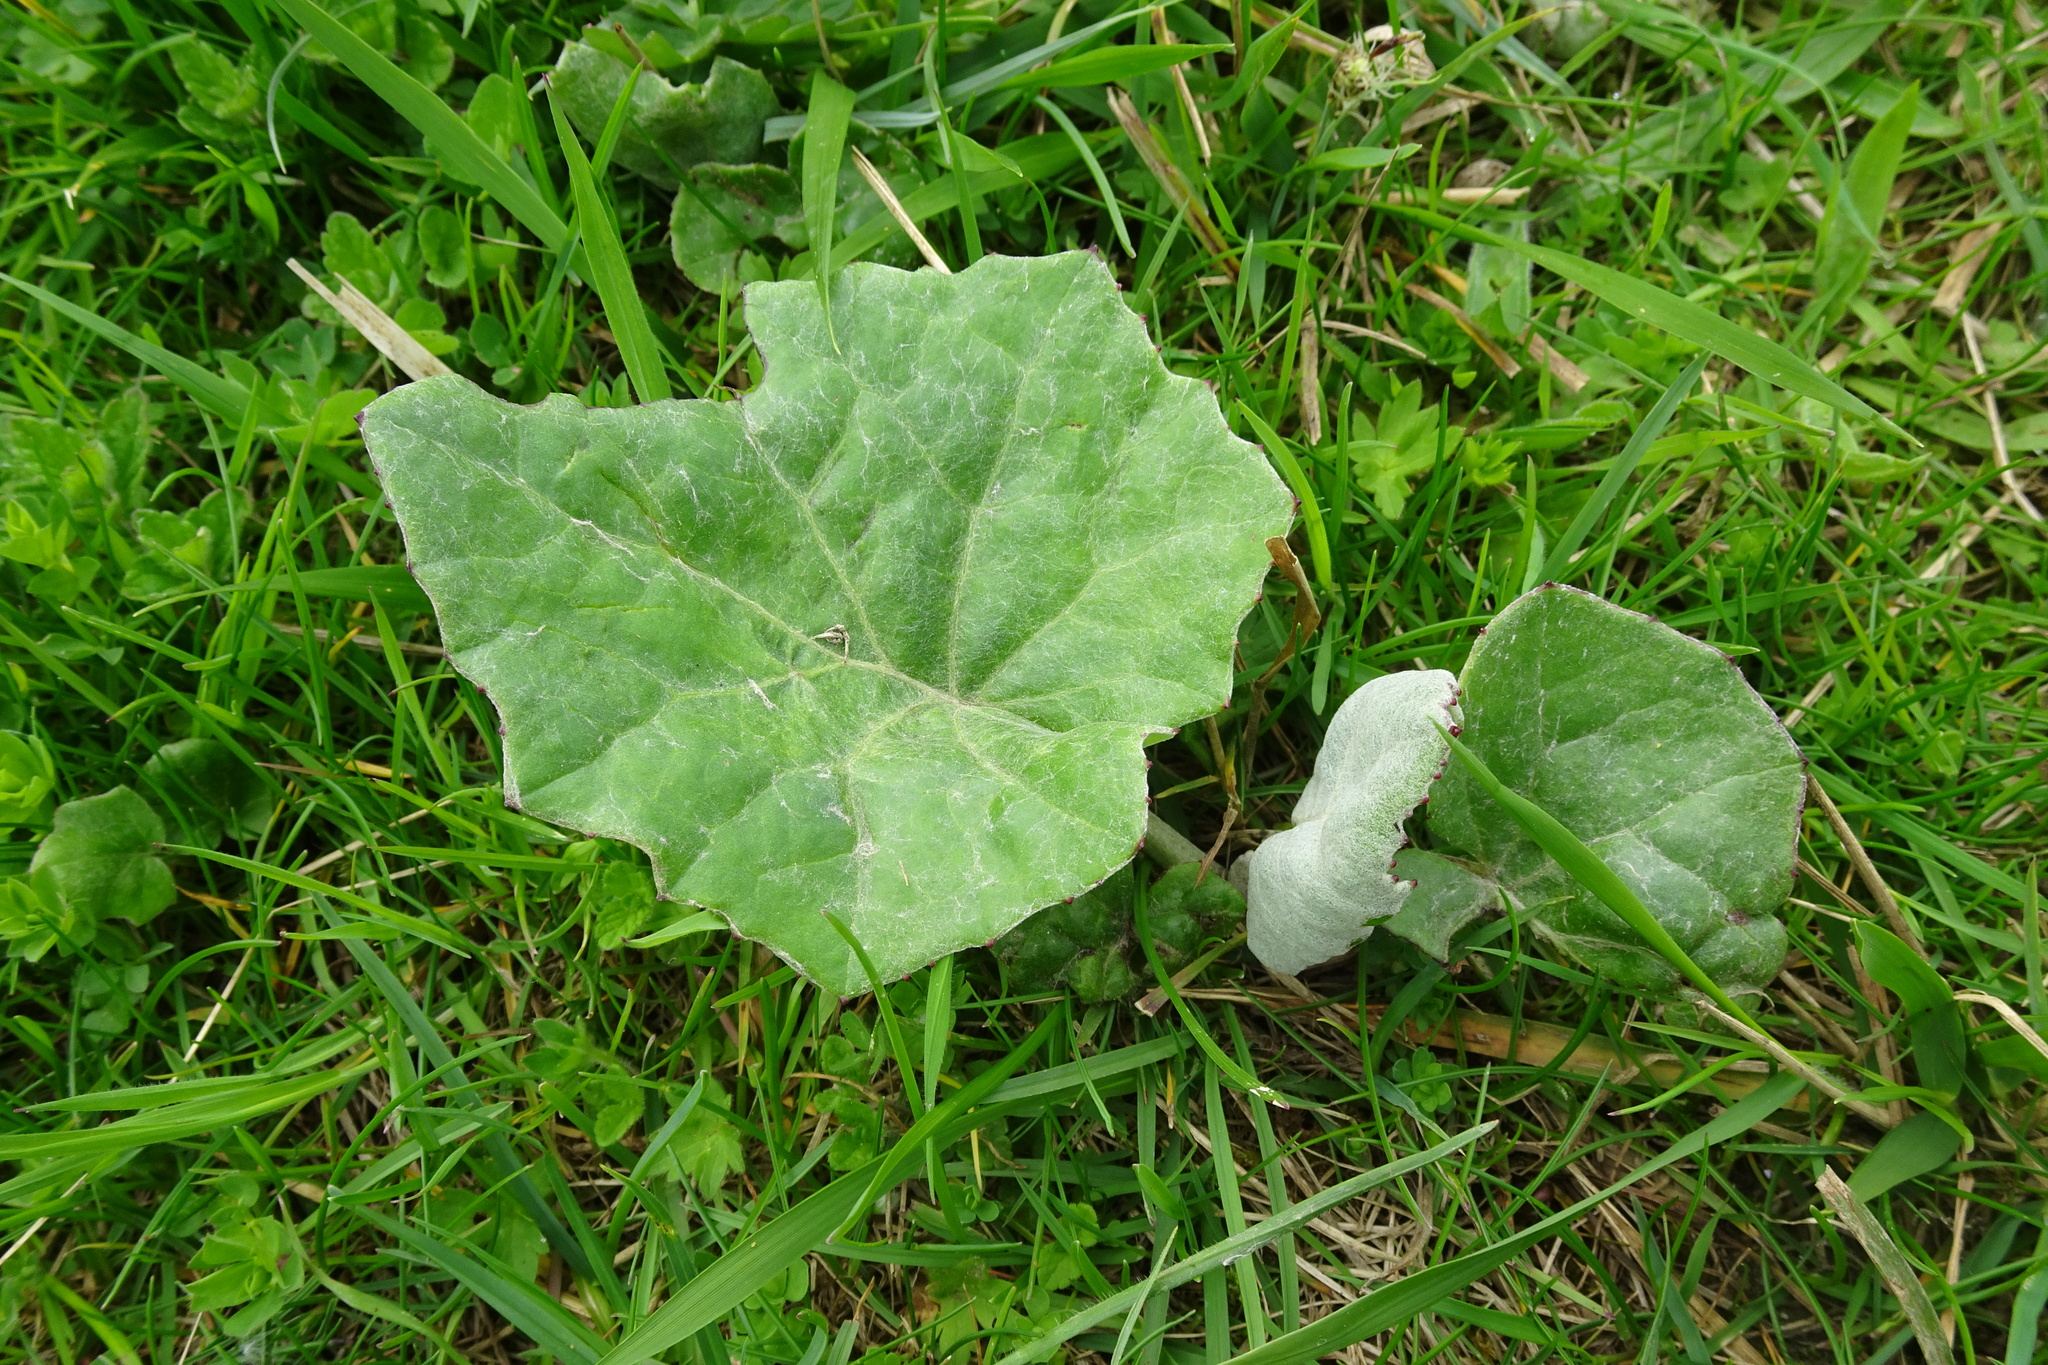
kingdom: Plantae
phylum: Tracheophyta
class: Magnoliopsida
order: Asterales
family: Asteraceae
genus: Tussilago
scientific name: Tussilago farfara
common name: Coltsfoot
